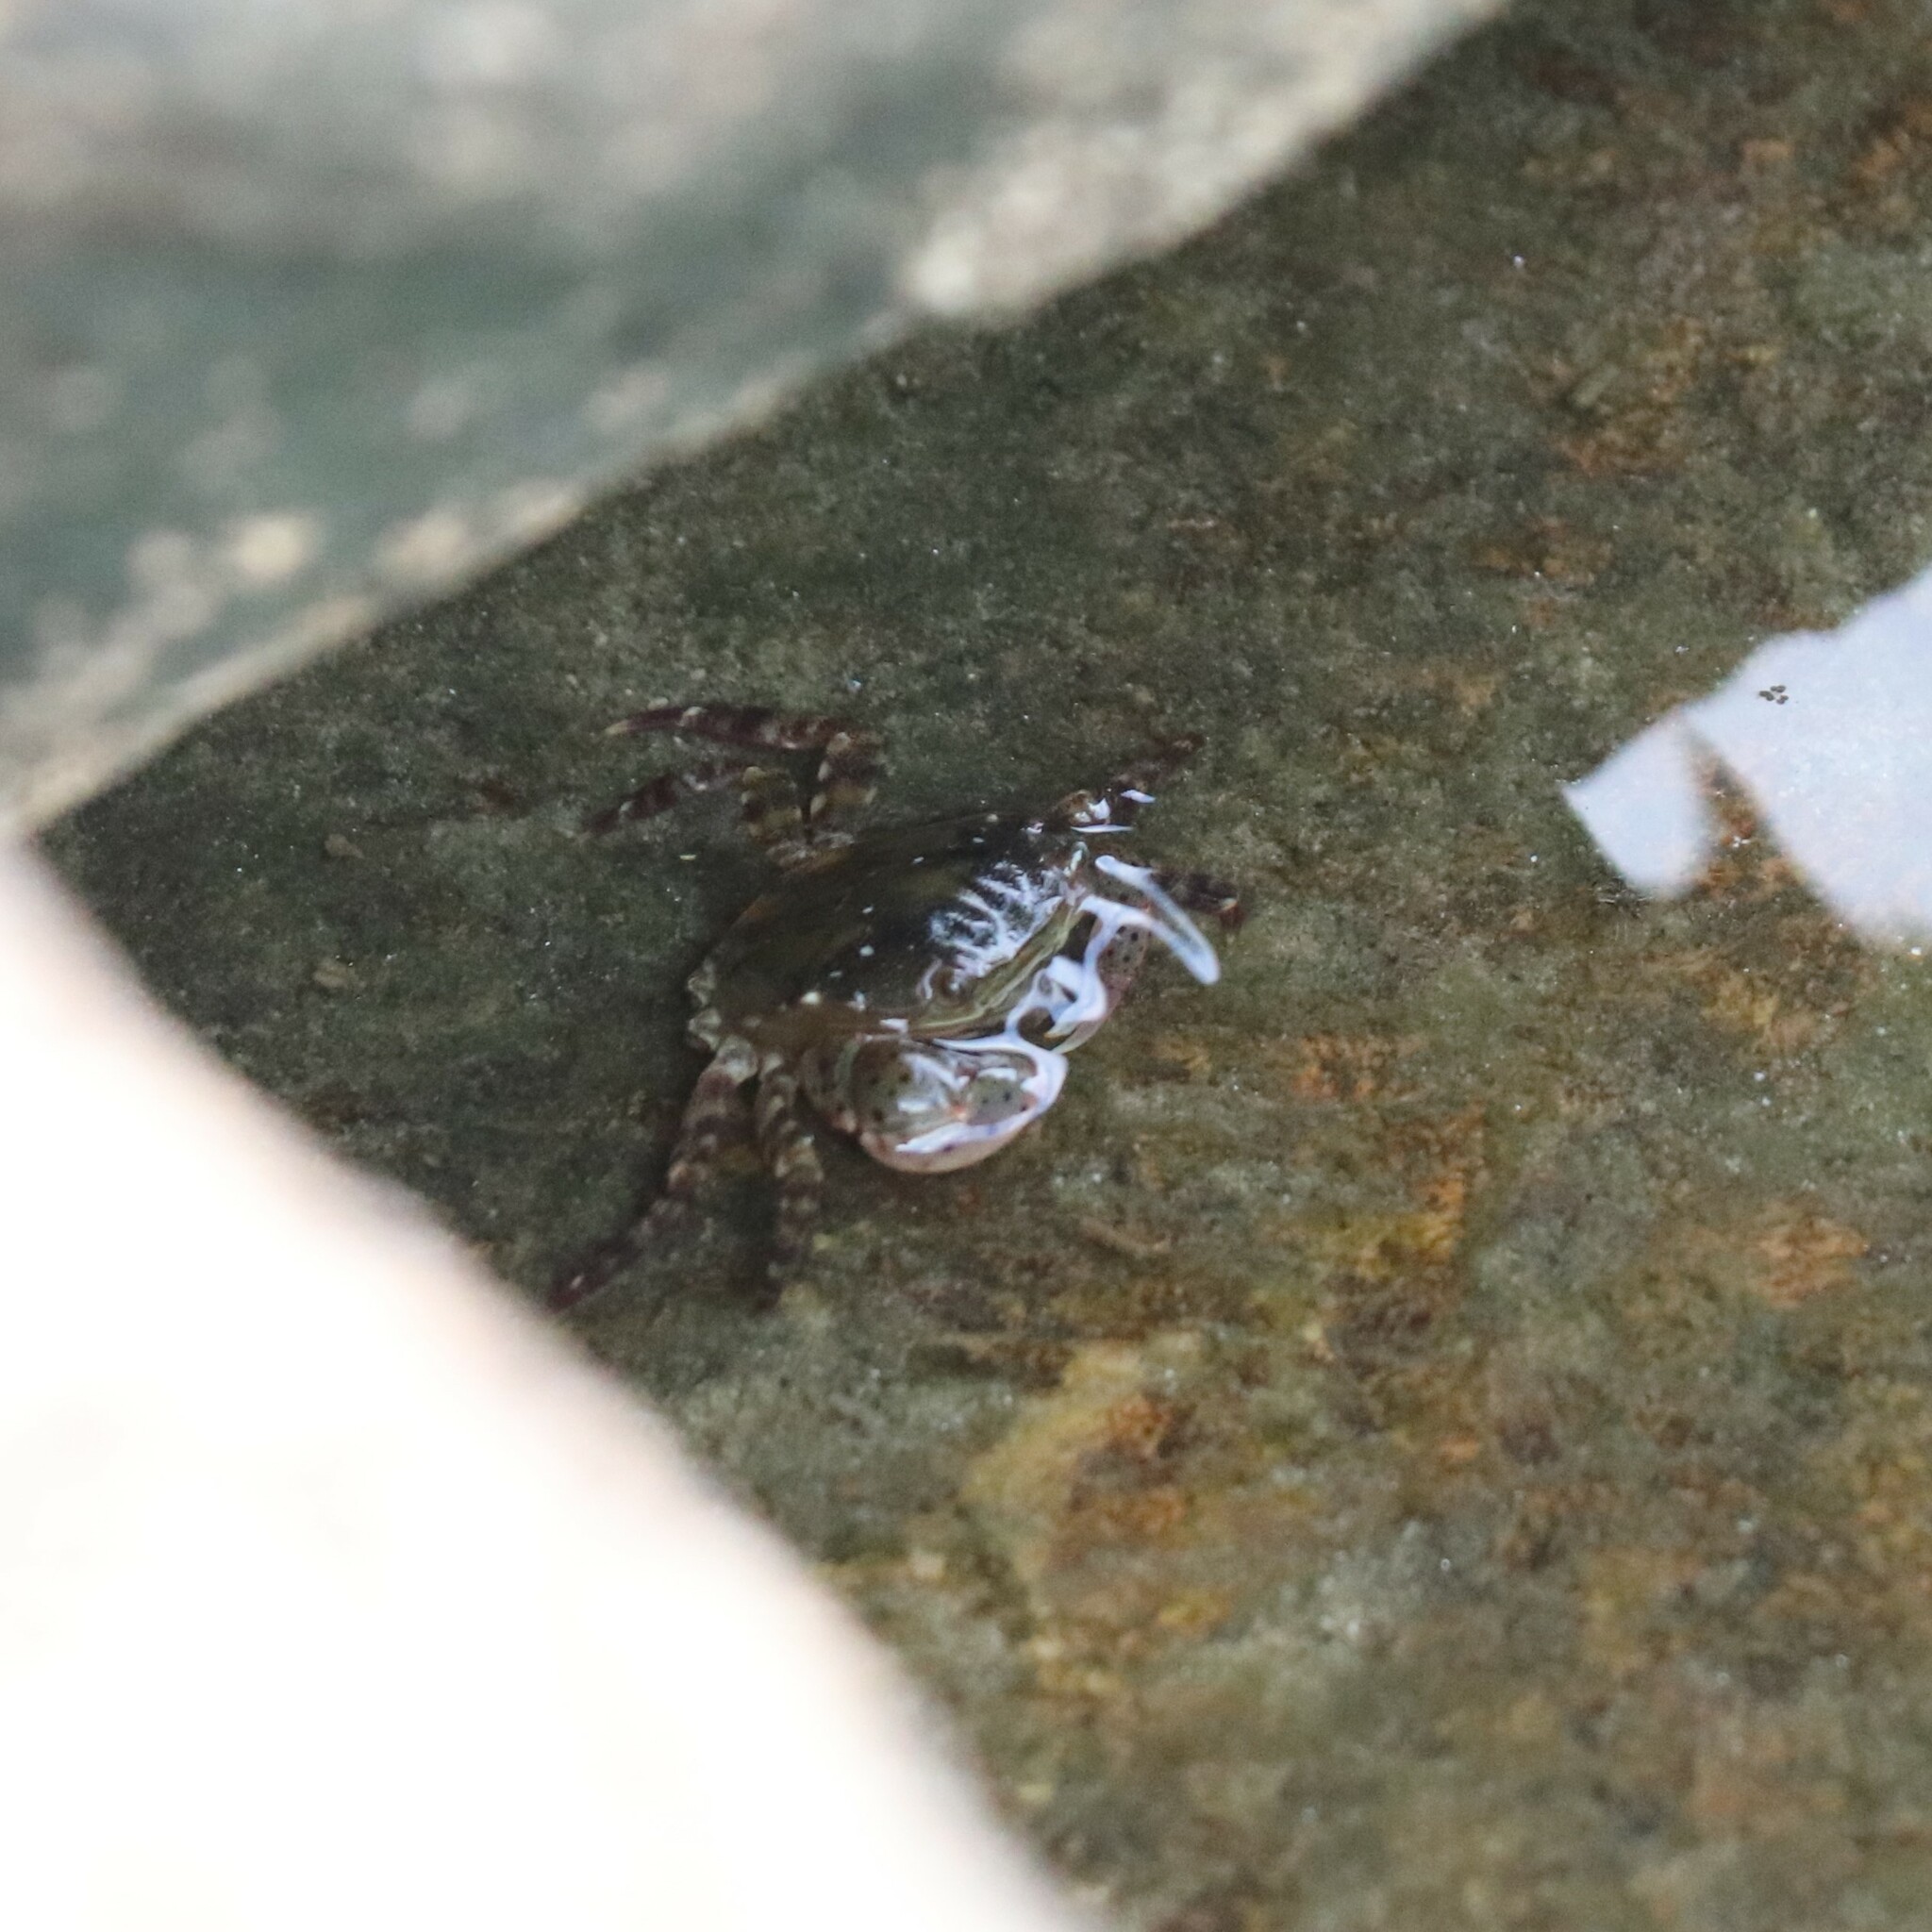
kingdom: Animalia
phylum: Arthropoda
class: Malacostraca
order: Decapoda
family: Varunidae
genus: Hemigrapsus
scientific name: Hemigrapsus sanguineus
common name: Asian shore crab
